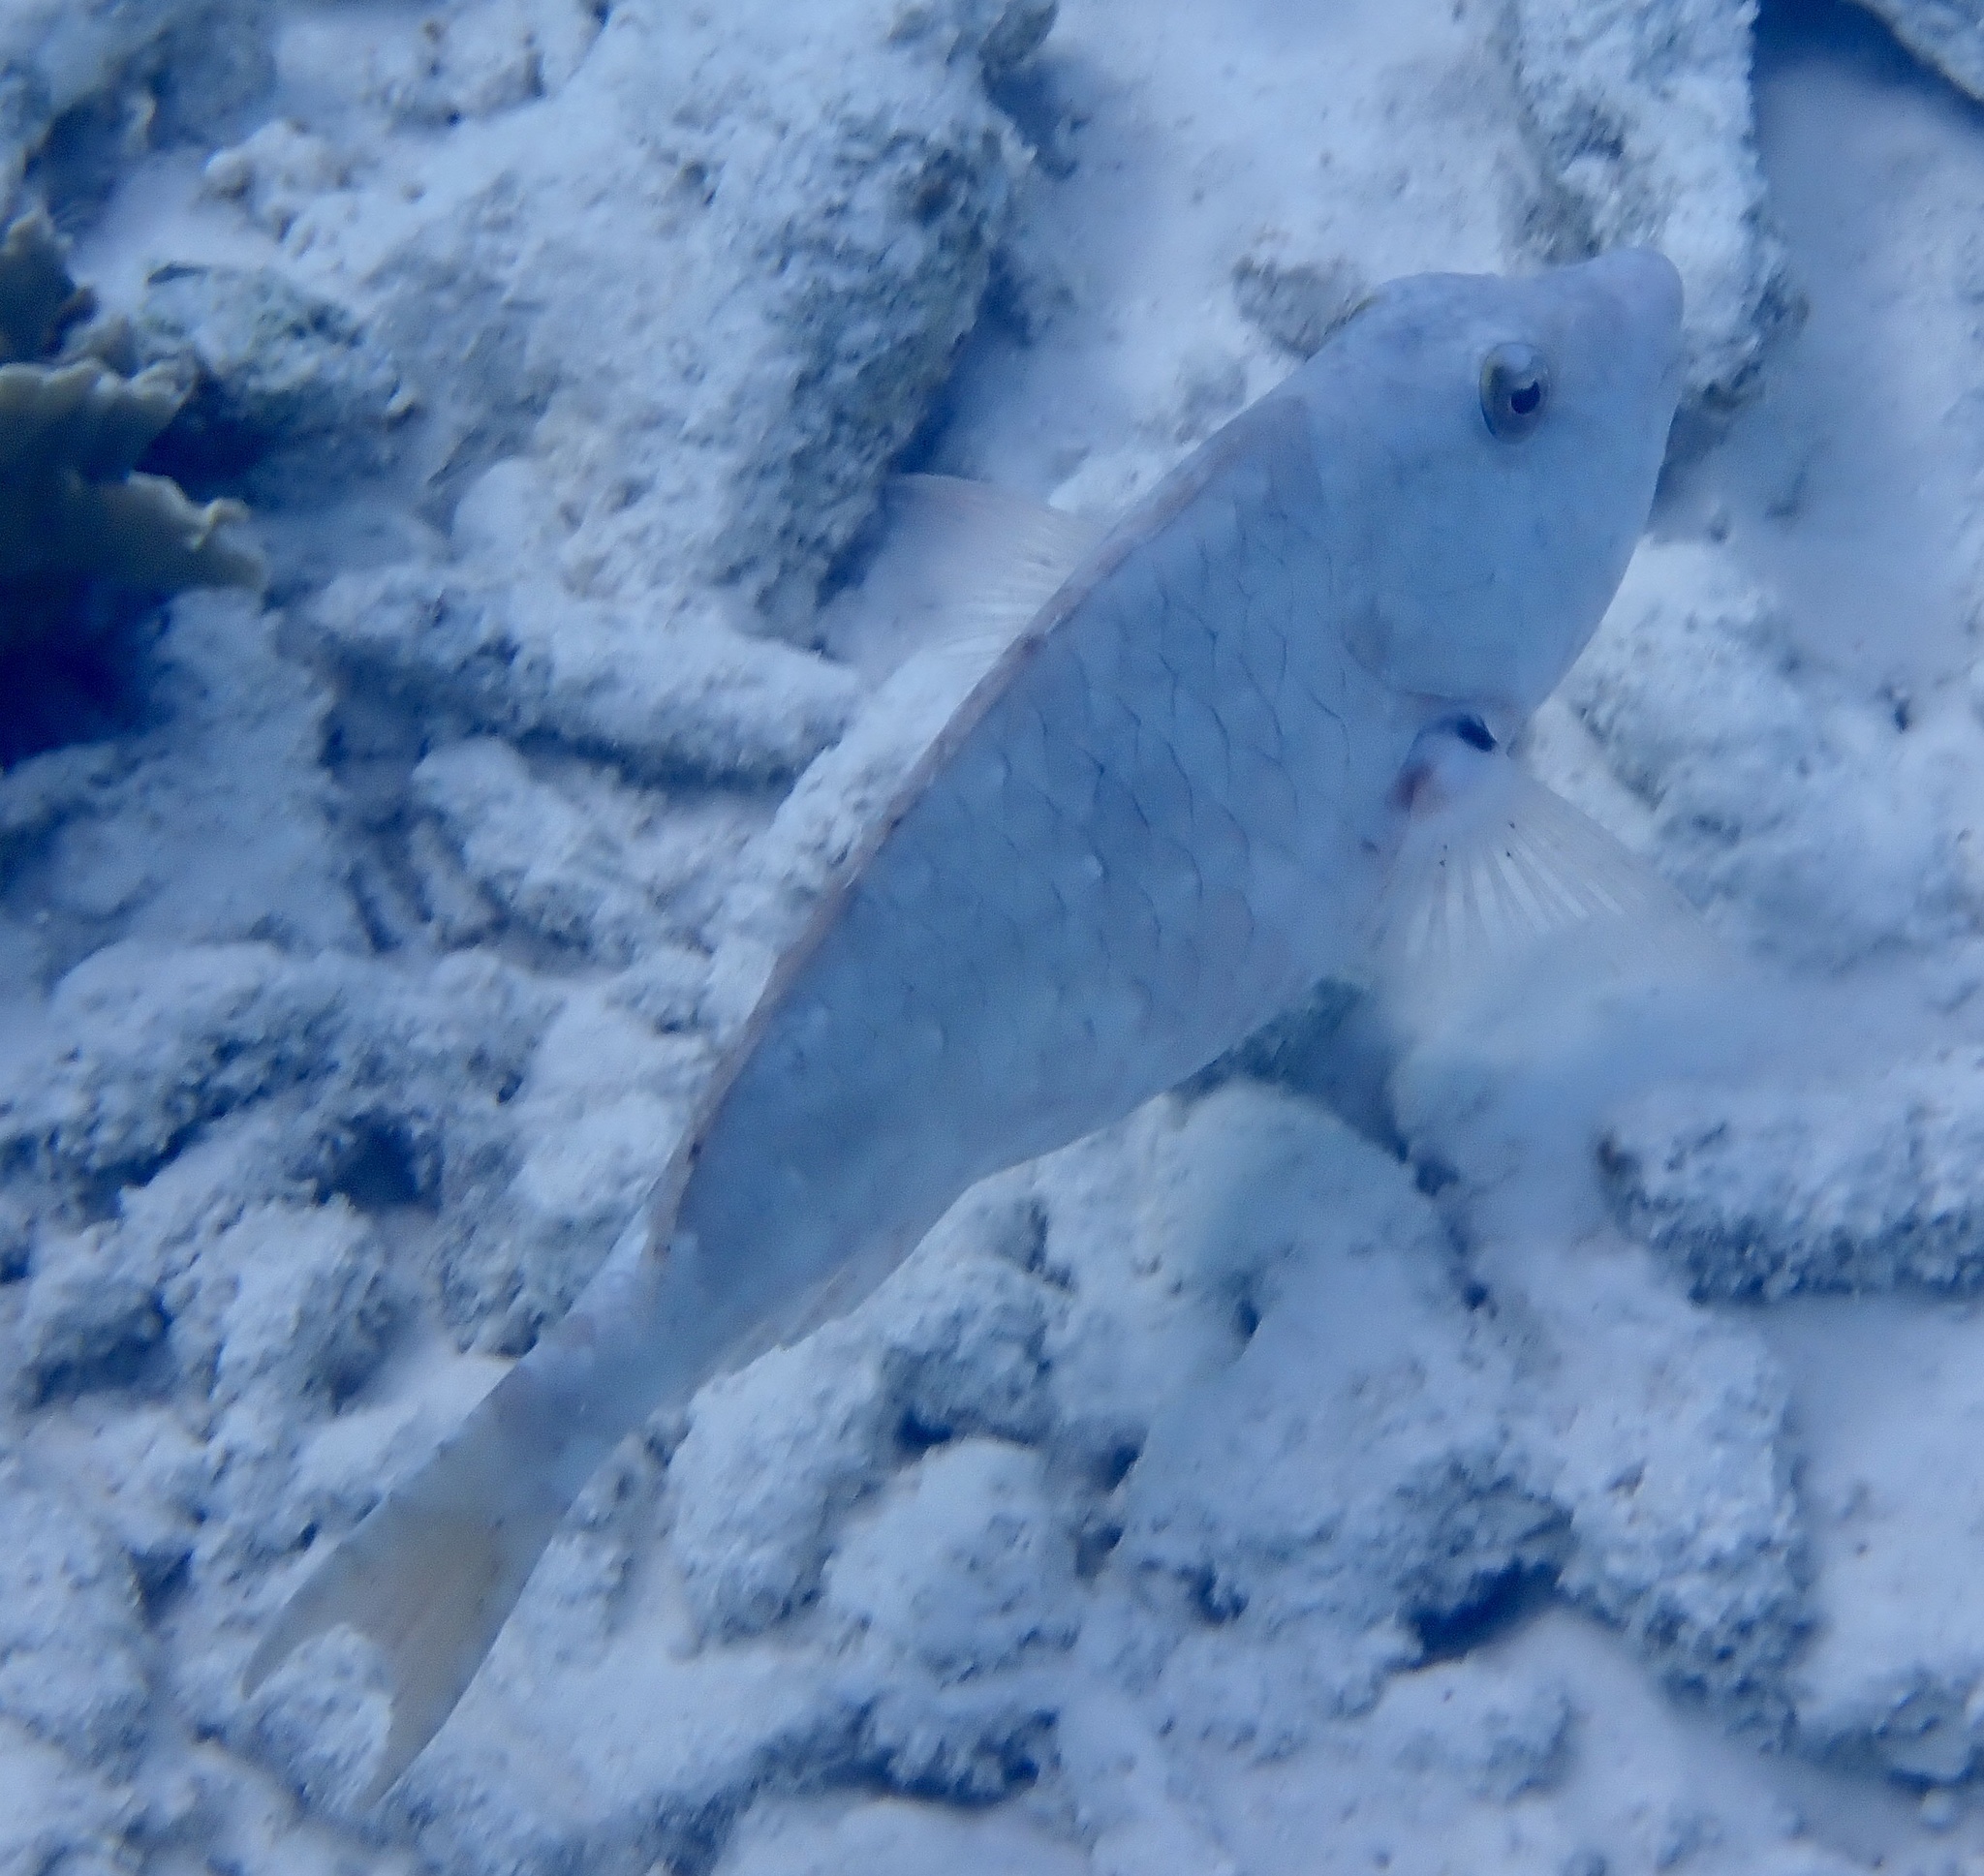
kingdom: Animalia
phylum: Chordata
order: Perciformes
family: Scaridae
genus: Sparisoma
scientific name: Sparisoma rubripinne
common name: Redfin parrotfish
